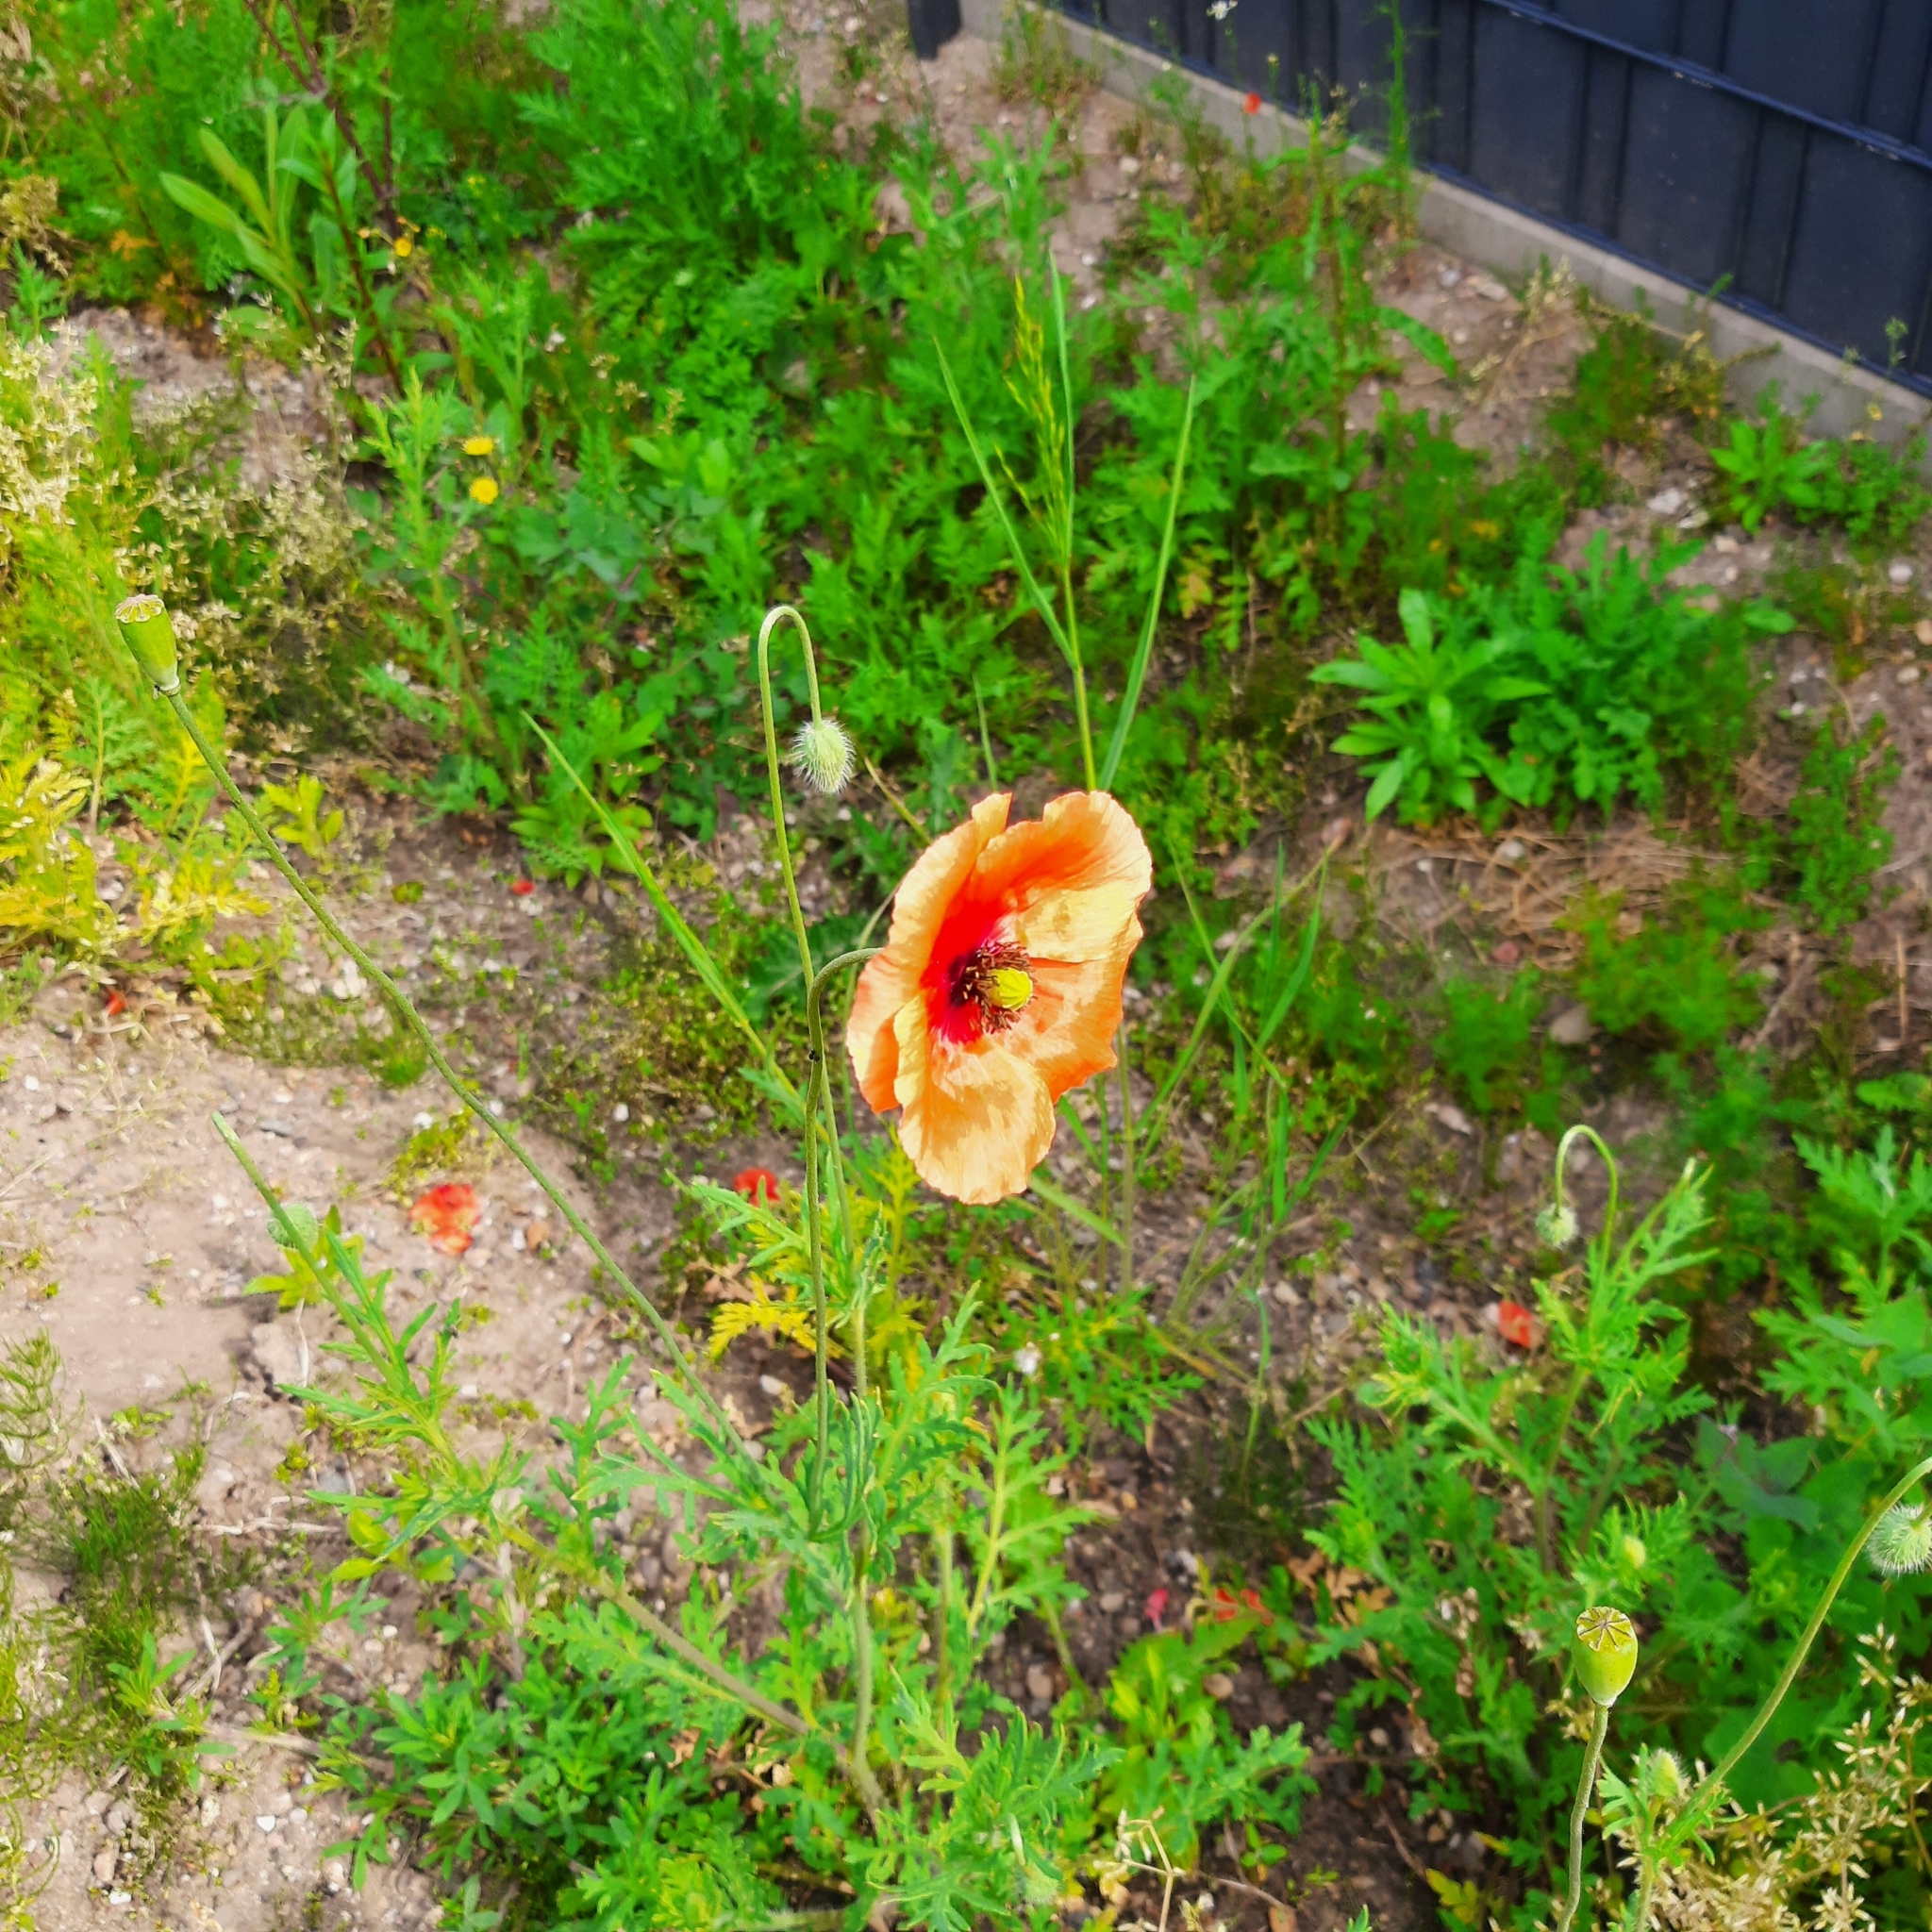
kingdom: Plantae
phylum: Tracheophyta
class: Magnoliopsida
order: Ranunculales
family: Papaveraceae
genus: Papaver
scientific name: Papaver rhoeas
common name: Corn poppy
